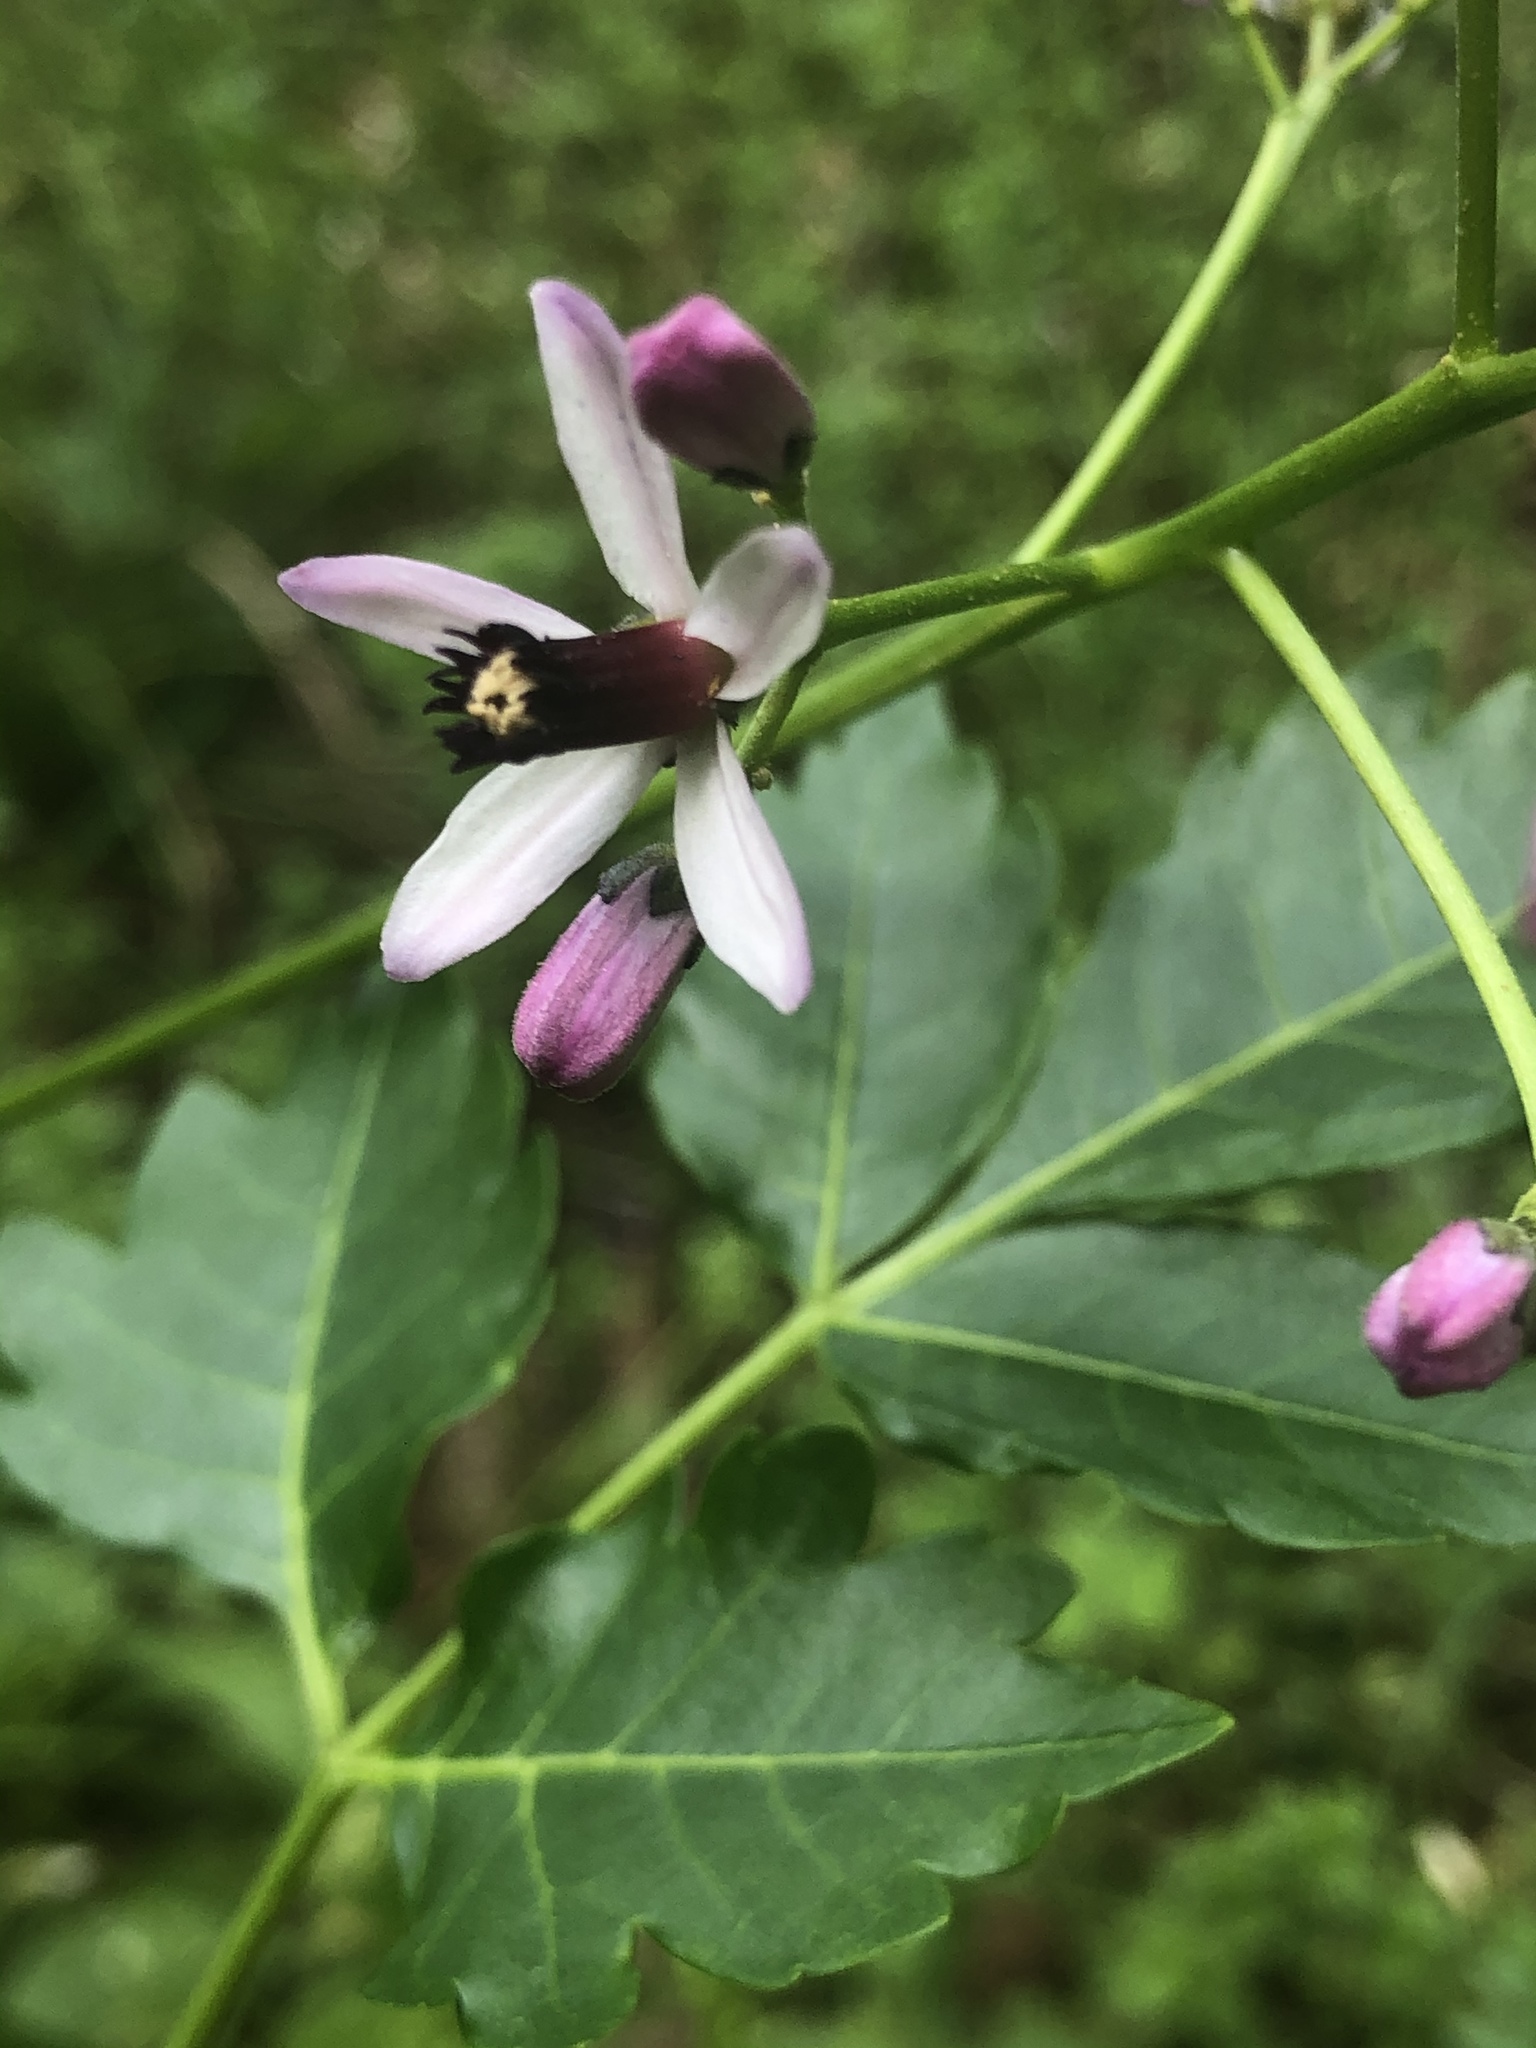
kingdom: Plantae
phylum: Tracheophyta
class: Magnoliopsida
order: Sapindales
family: Meliaceae
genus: Melia
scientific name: Melia azedarach
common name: Chinaberrytree
